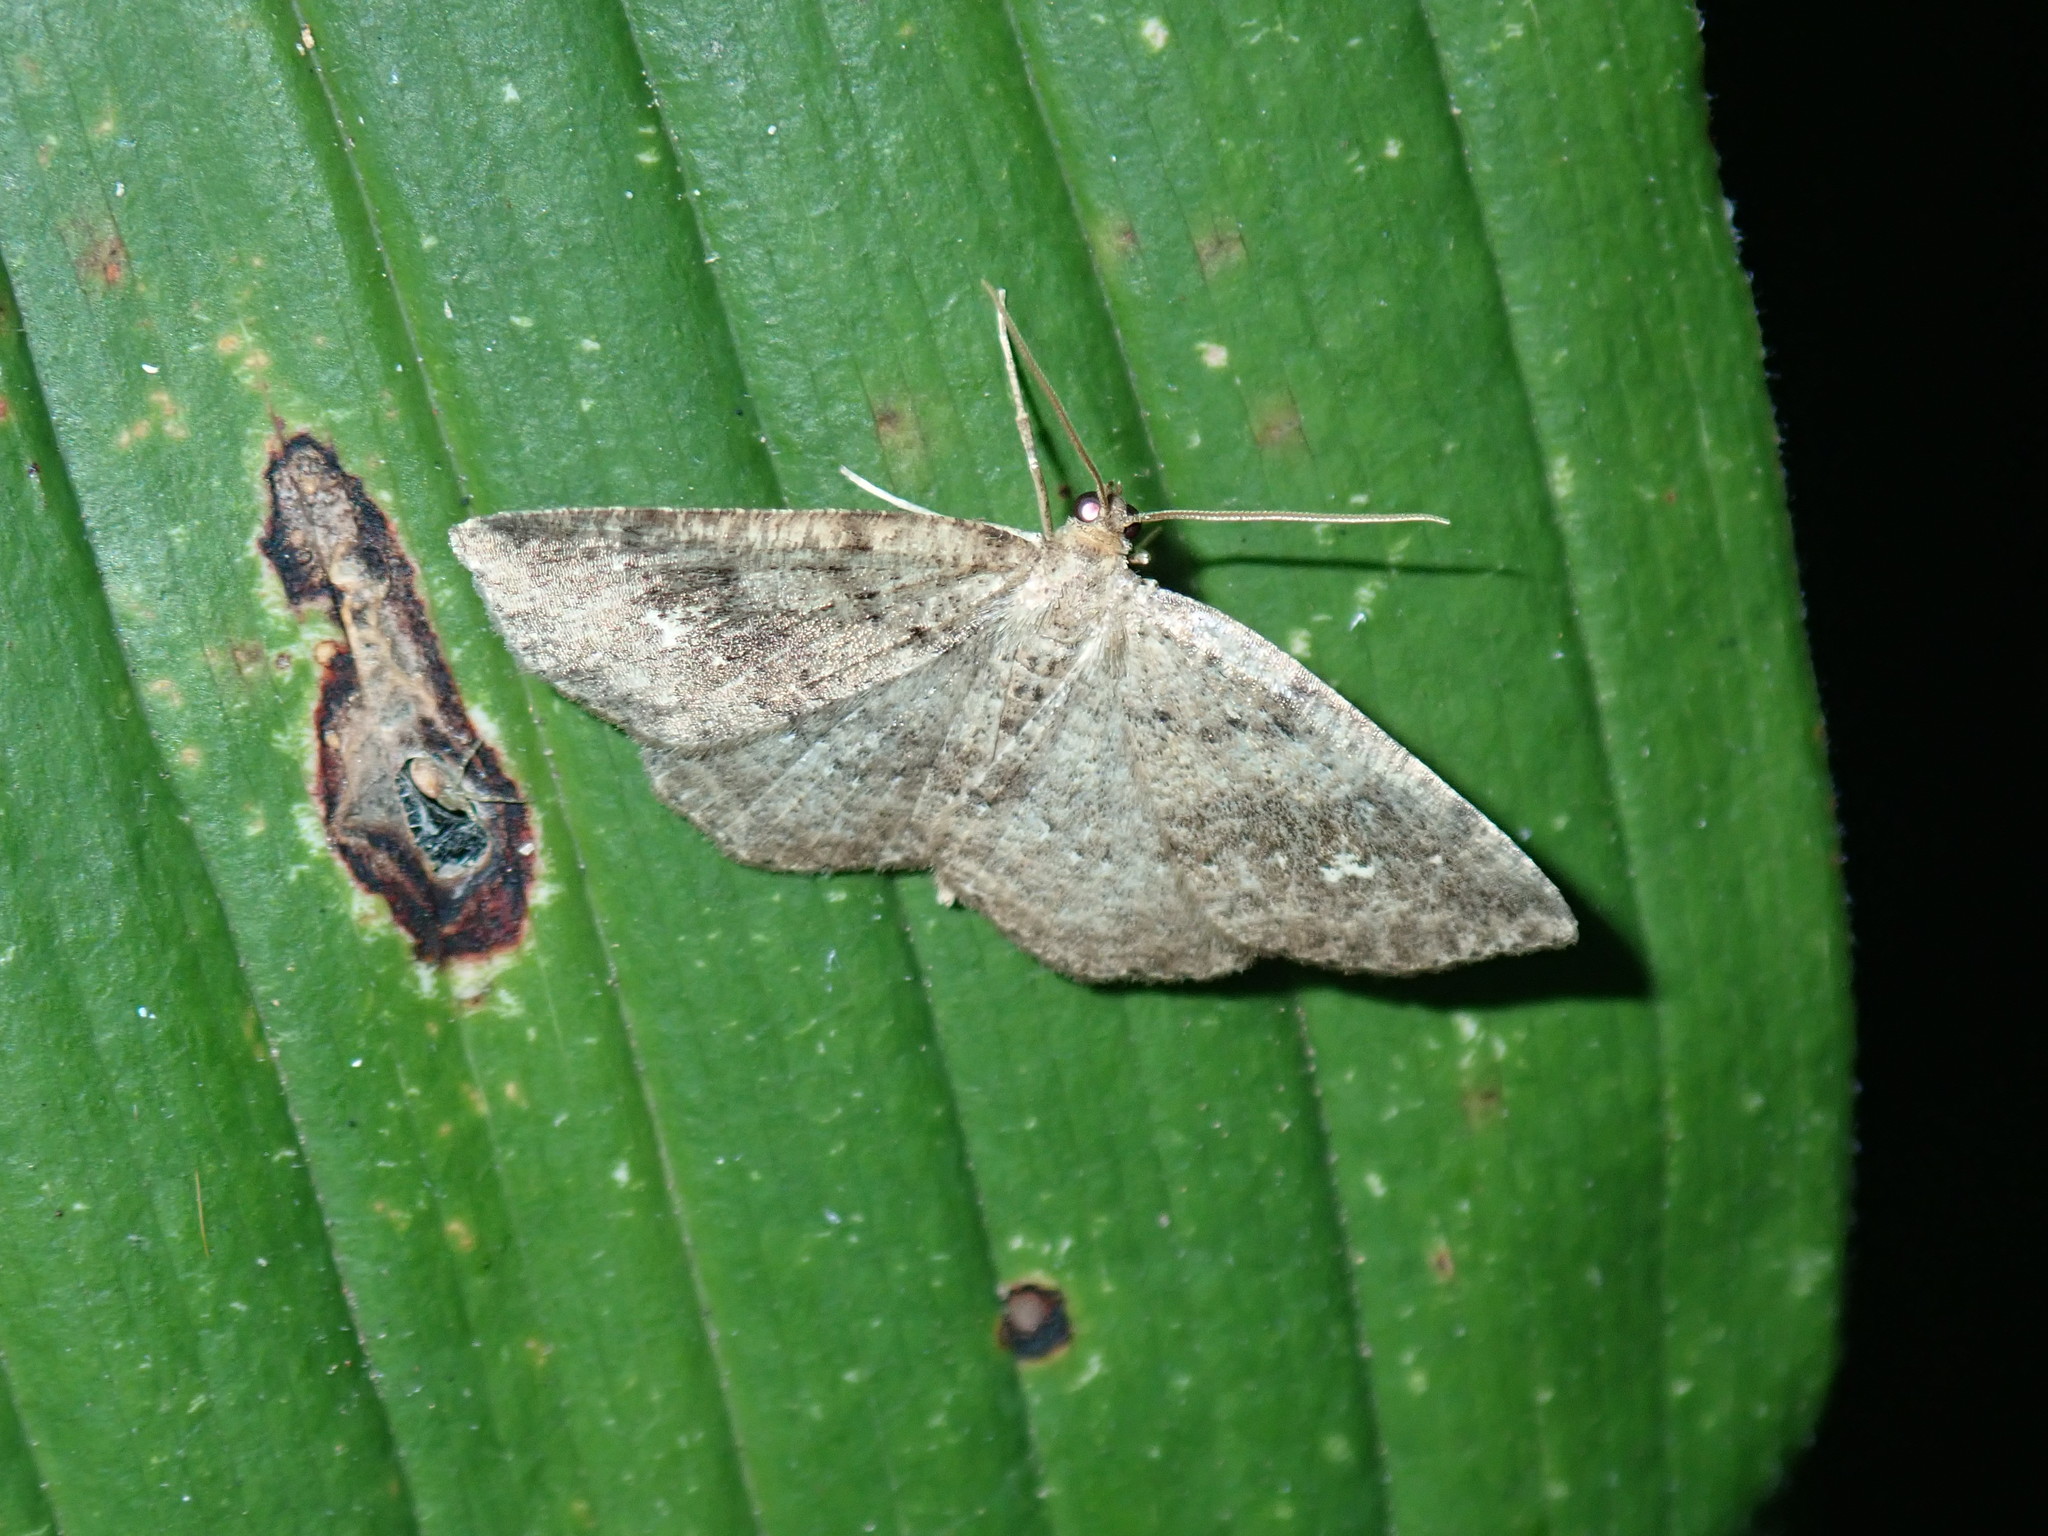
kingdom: Animalia
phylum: Arthropoda
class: Insecta
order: Lepidoptera
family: Geometridae
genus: Homochlodes
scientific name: Homochlodes fritillaria
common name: Pale homochlodes
